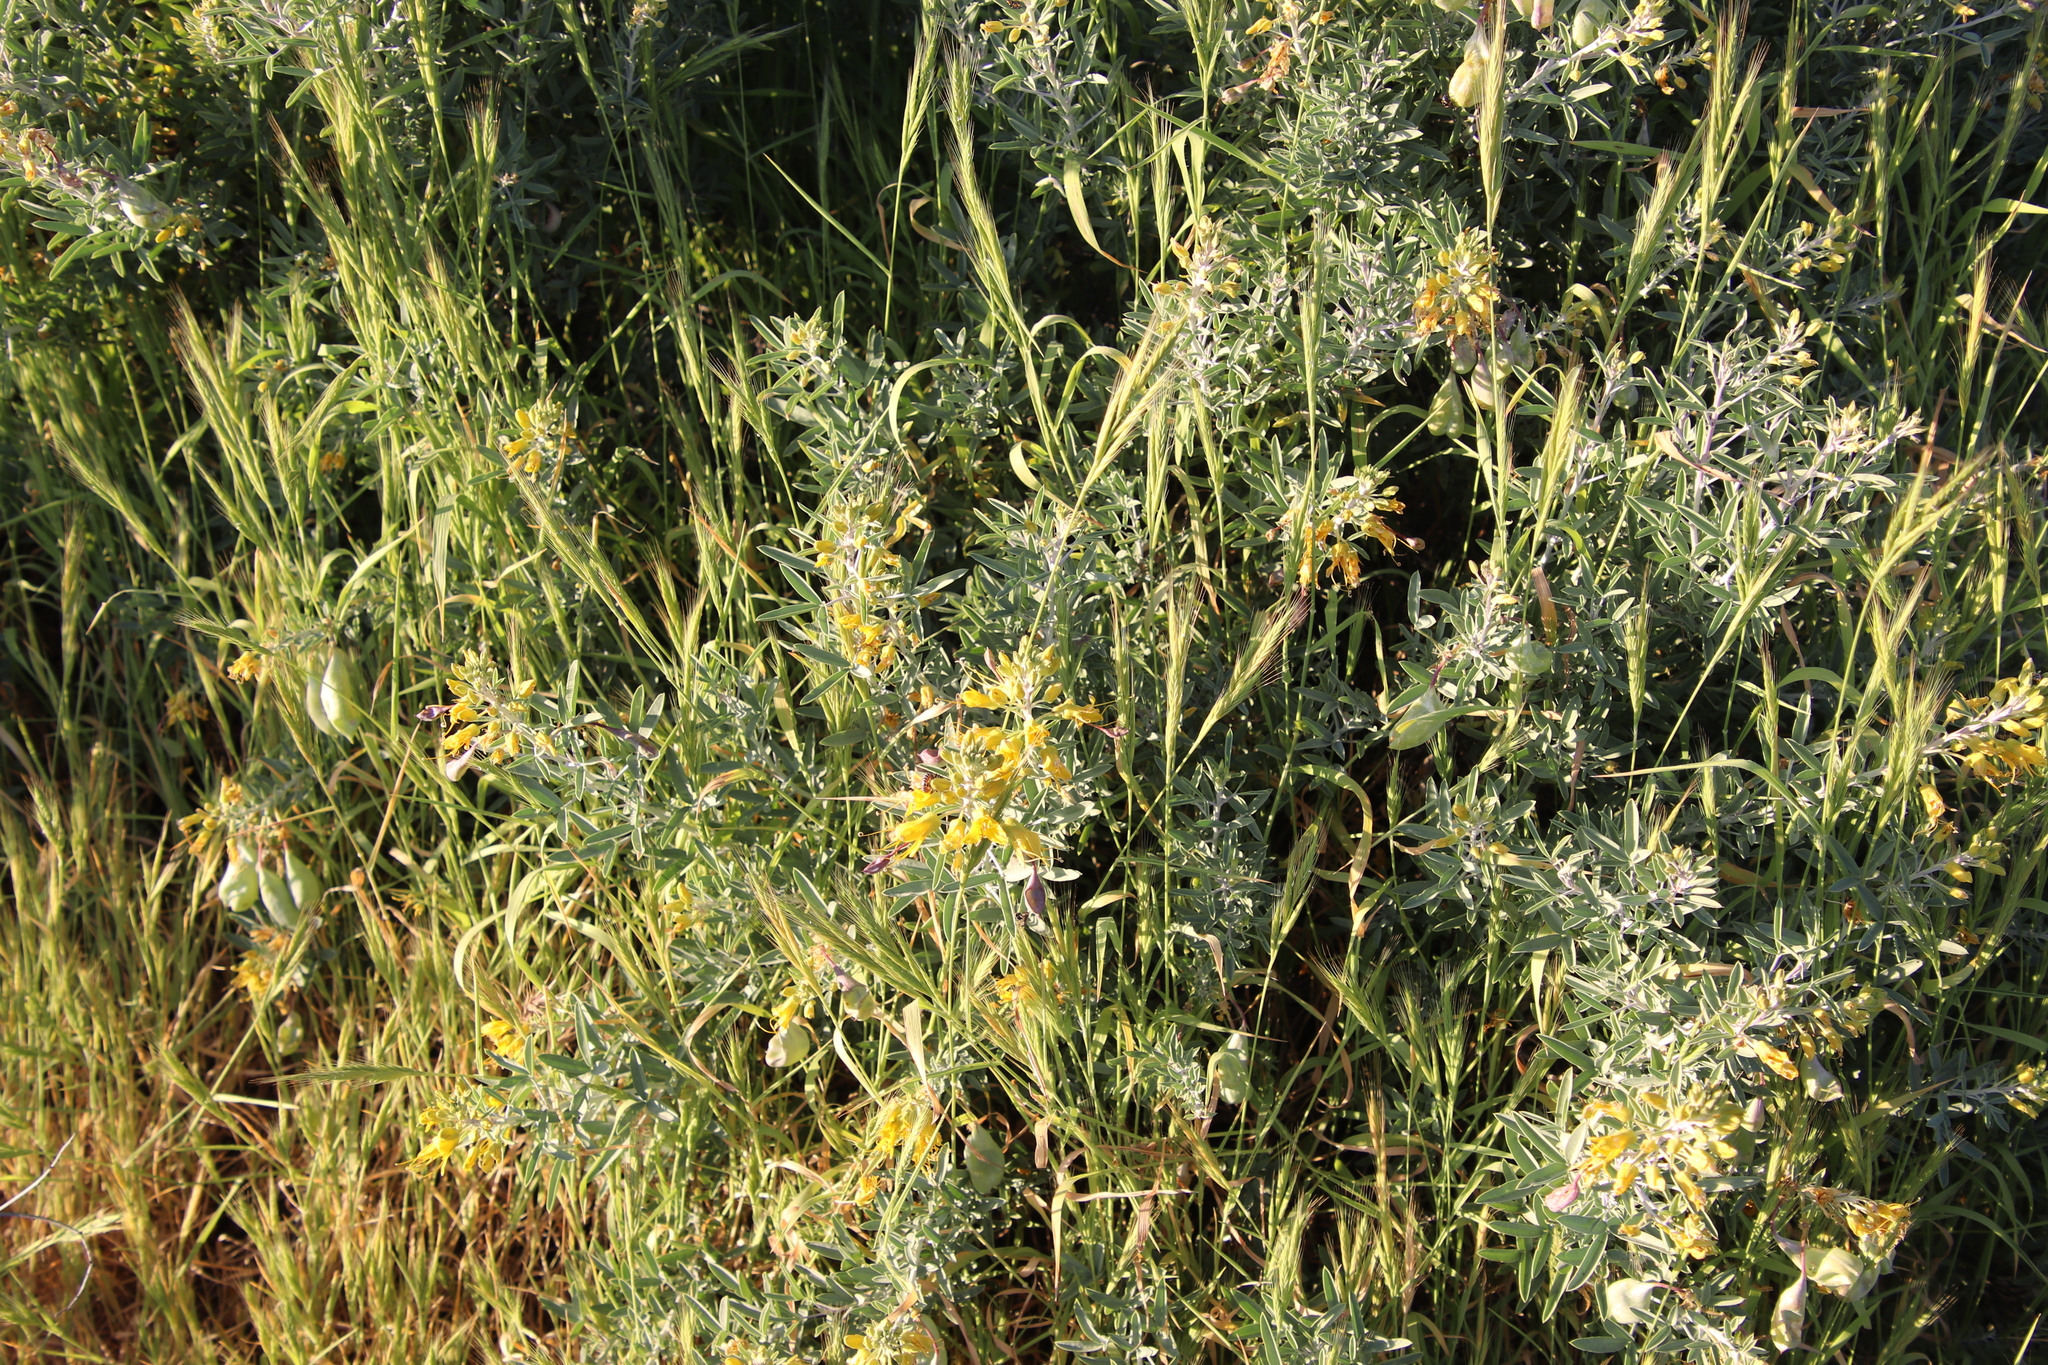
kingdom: Plantae
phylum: Tracheophyta
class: Magnoliopsida
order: Brassicales
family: Cleomaceae
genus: Cleomella
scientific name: Cleomella arborea
